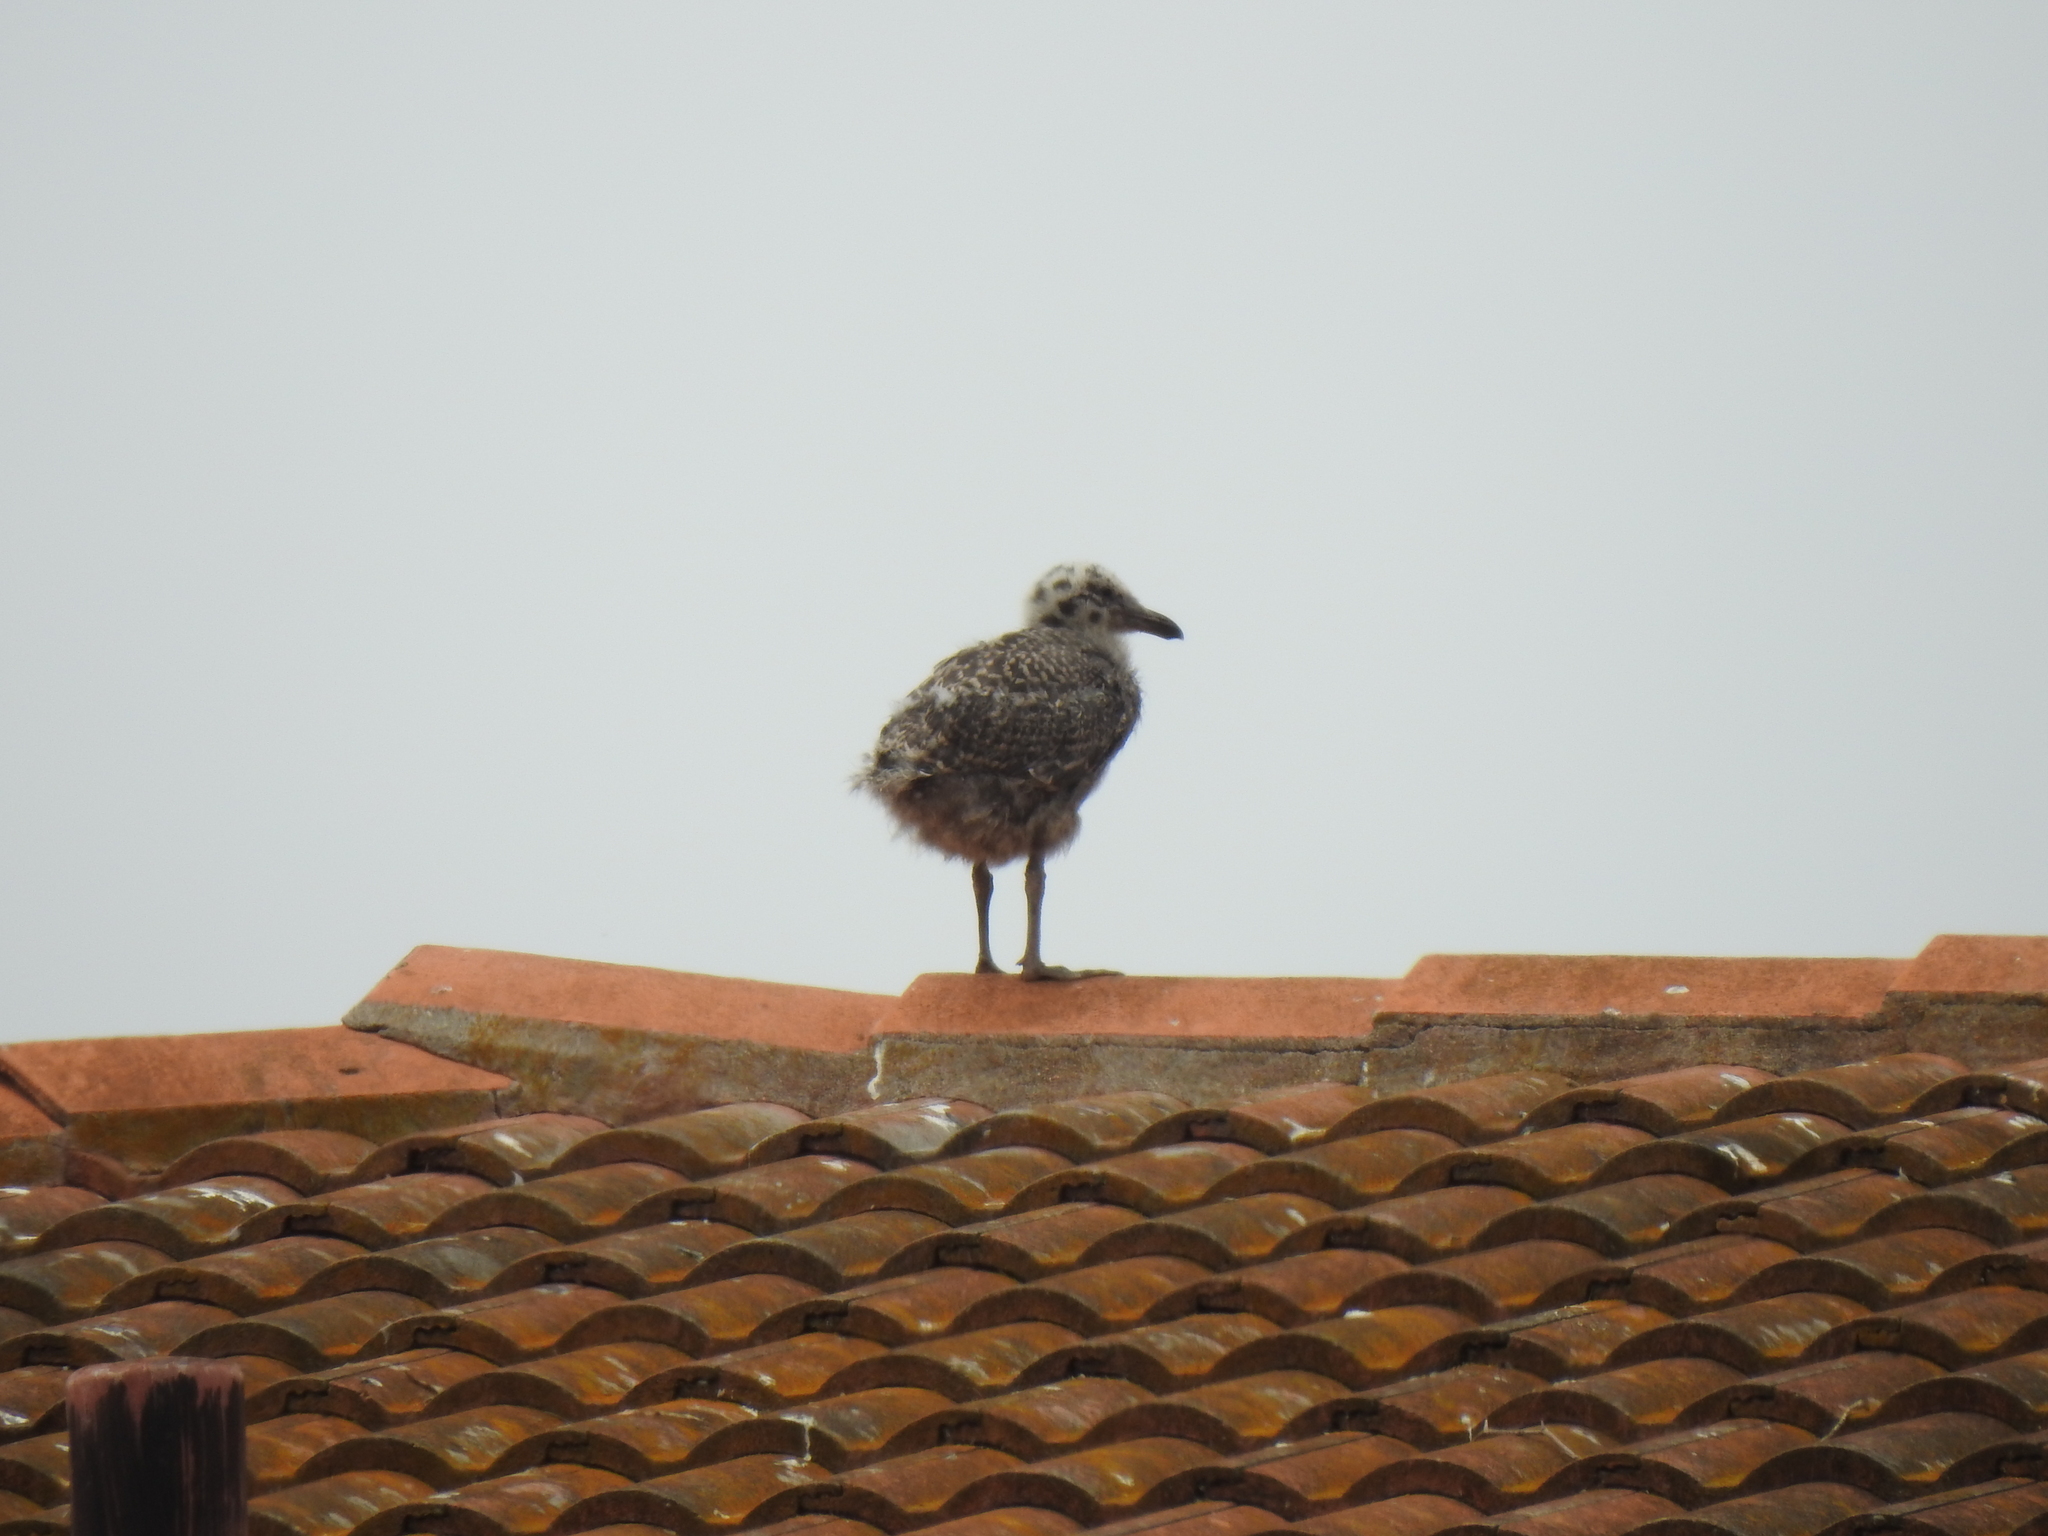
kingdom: Animalia
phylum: Chordata
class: Aves
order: Charadriiformes
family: Laridae
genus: Larus
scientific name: Larus occidentalis
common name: Western gull
